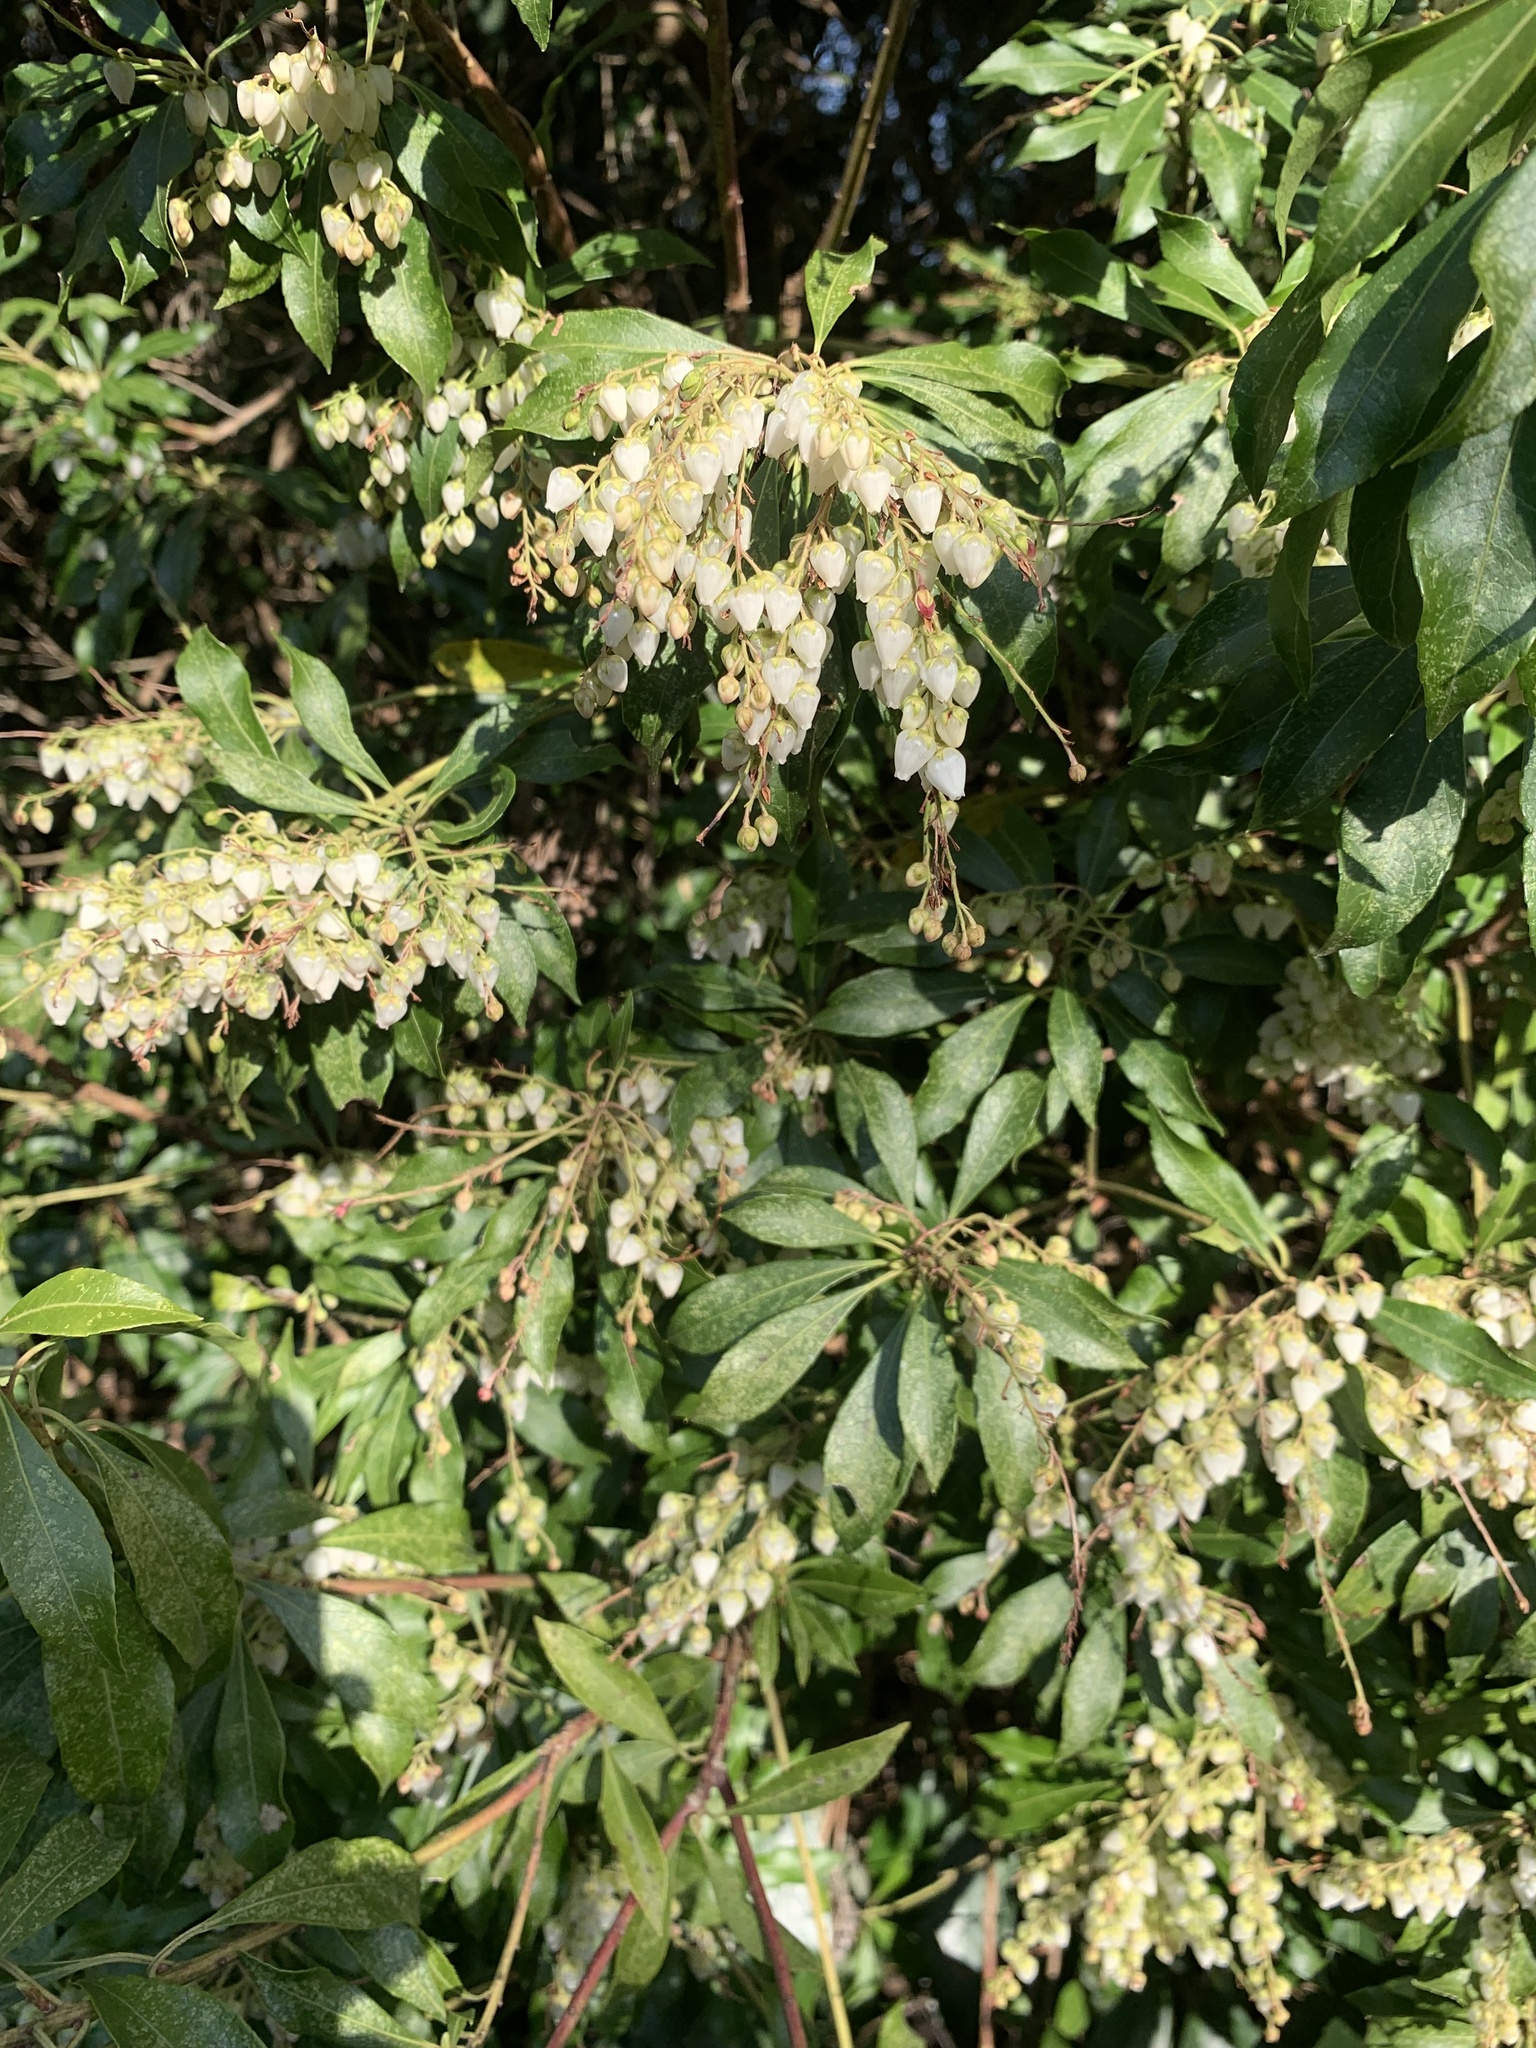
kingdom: Plantae
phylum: Tracheophyta
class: Magnoliopsida
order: Ericales
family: Ericaceae
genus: Pieris
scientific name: Pieris japonica
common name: Japanese pieris
